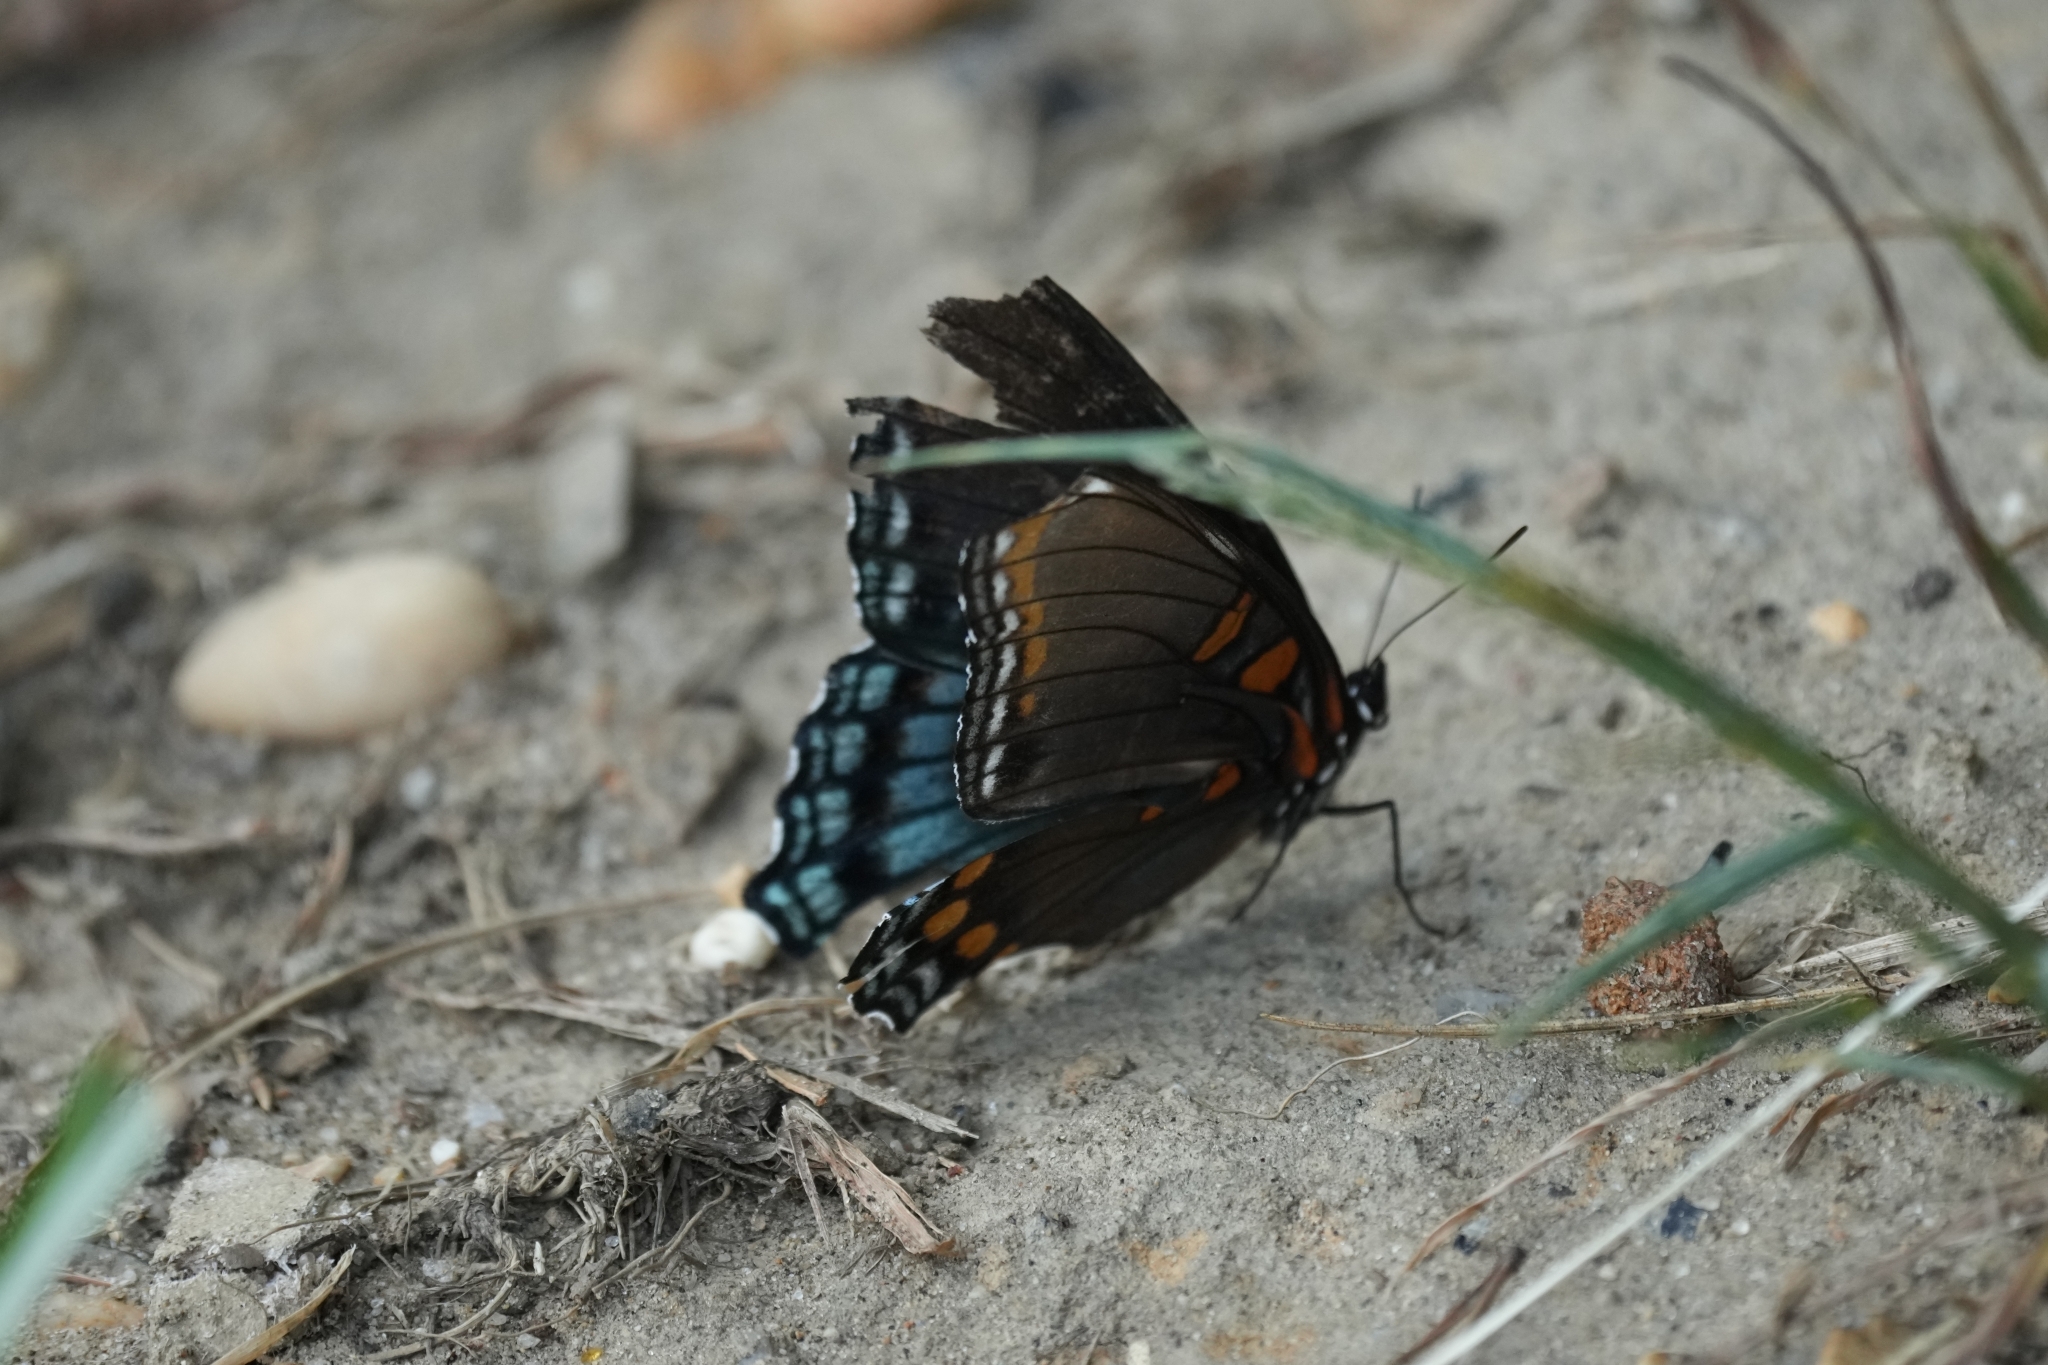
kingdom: Animalia
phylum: Arthropoda
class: Insecta
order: Lepidoptera
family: Nymphalidae
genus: Limenitis
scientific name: Limenitis astyanax
